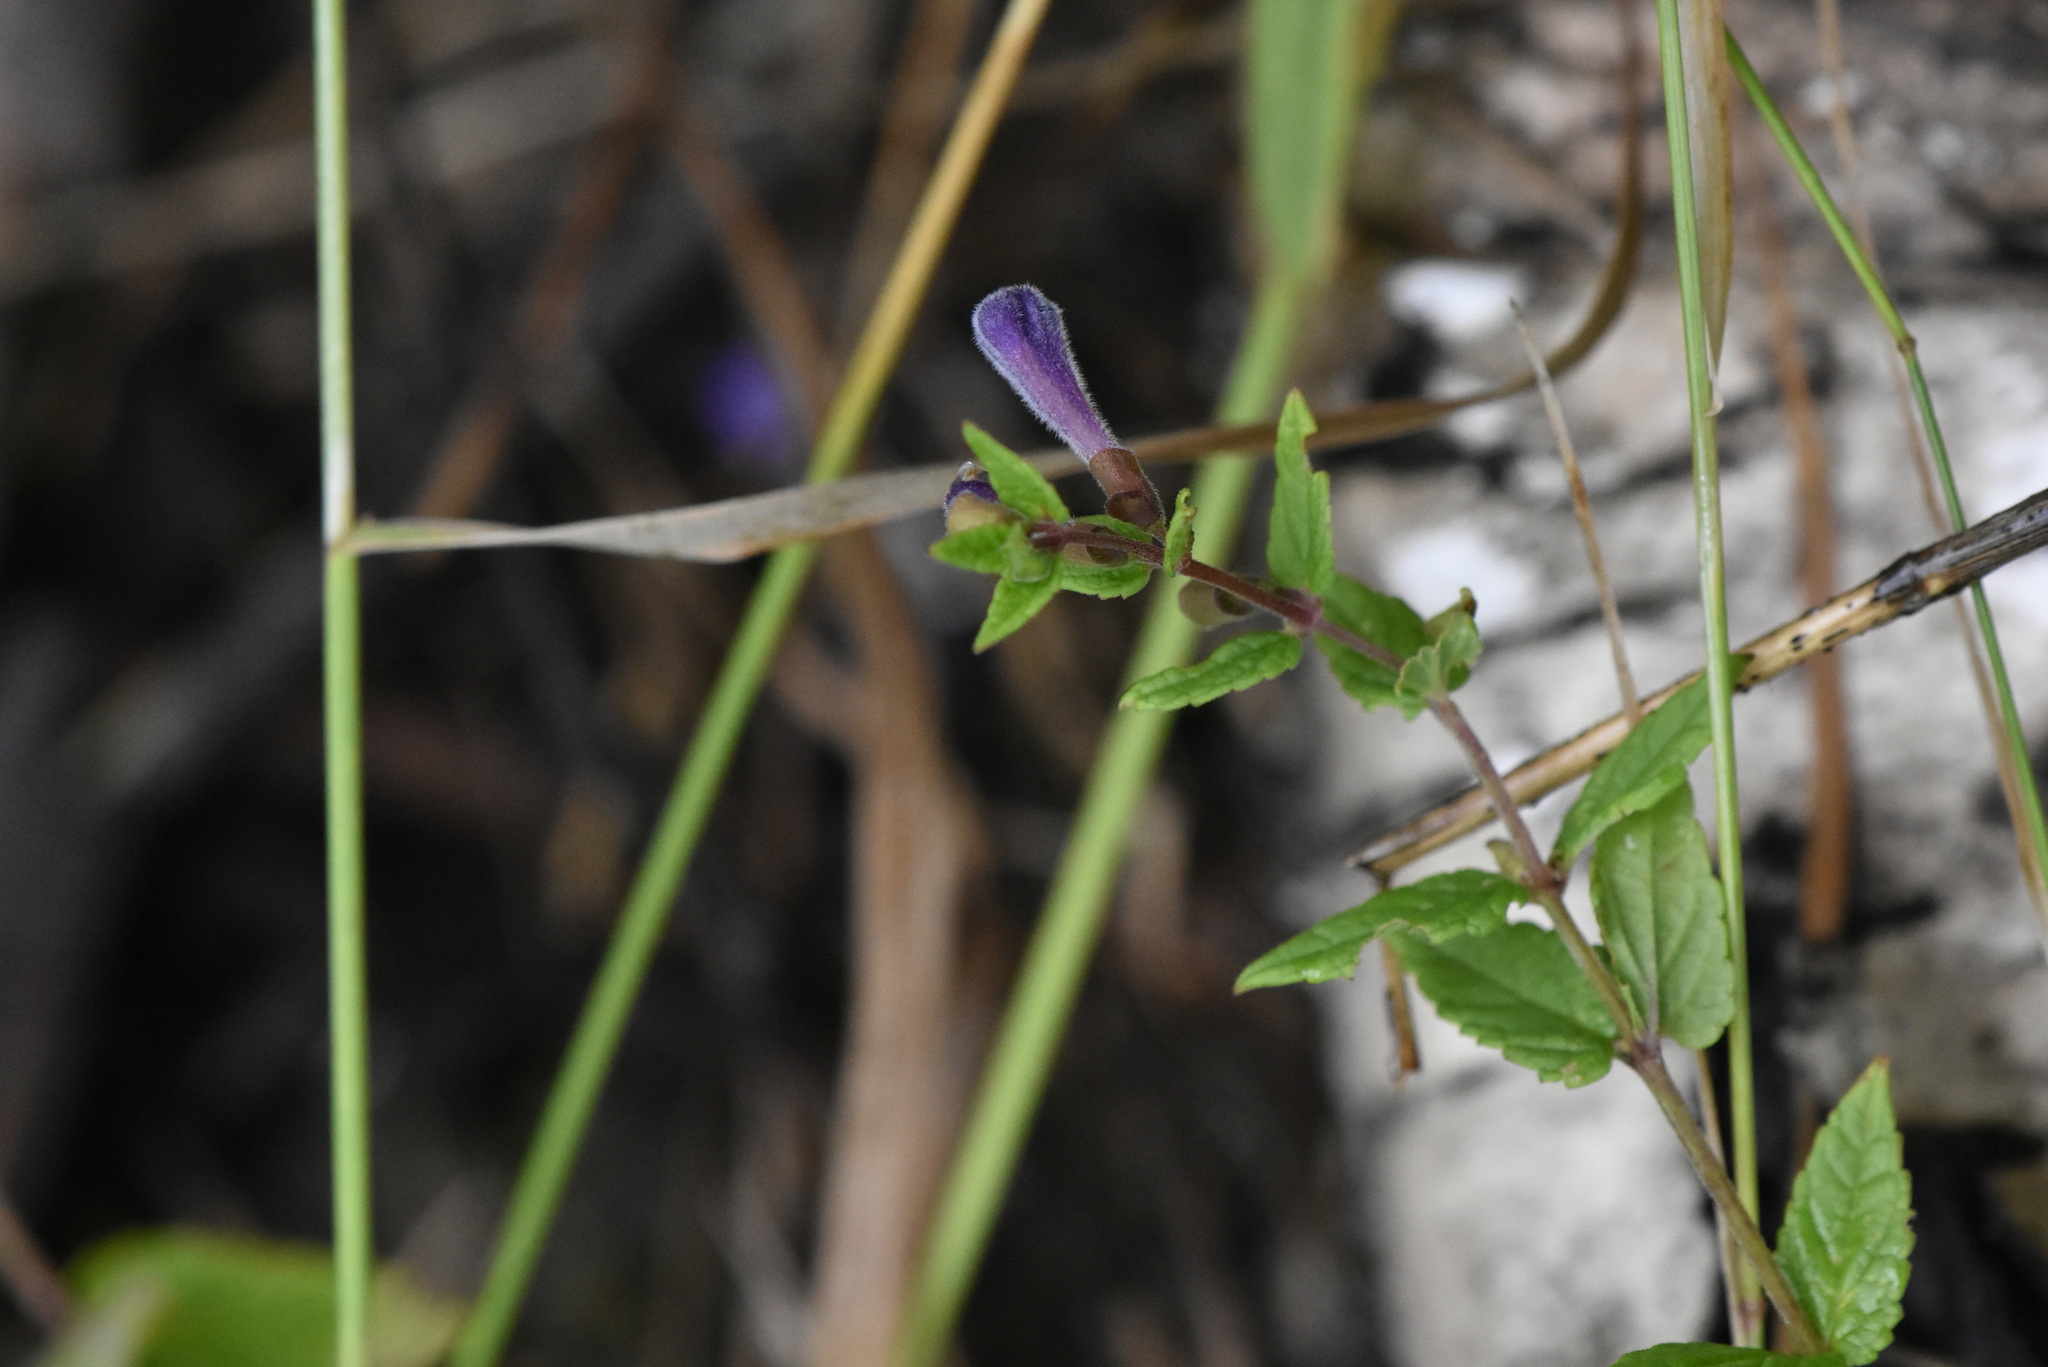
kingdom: Plantae
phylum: Tracheophyta
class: Magnoliopsida
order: Lamiales
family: Lamiaceae
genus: Scutellaria
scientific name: Scutellaria galericulata
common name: Skullcap
